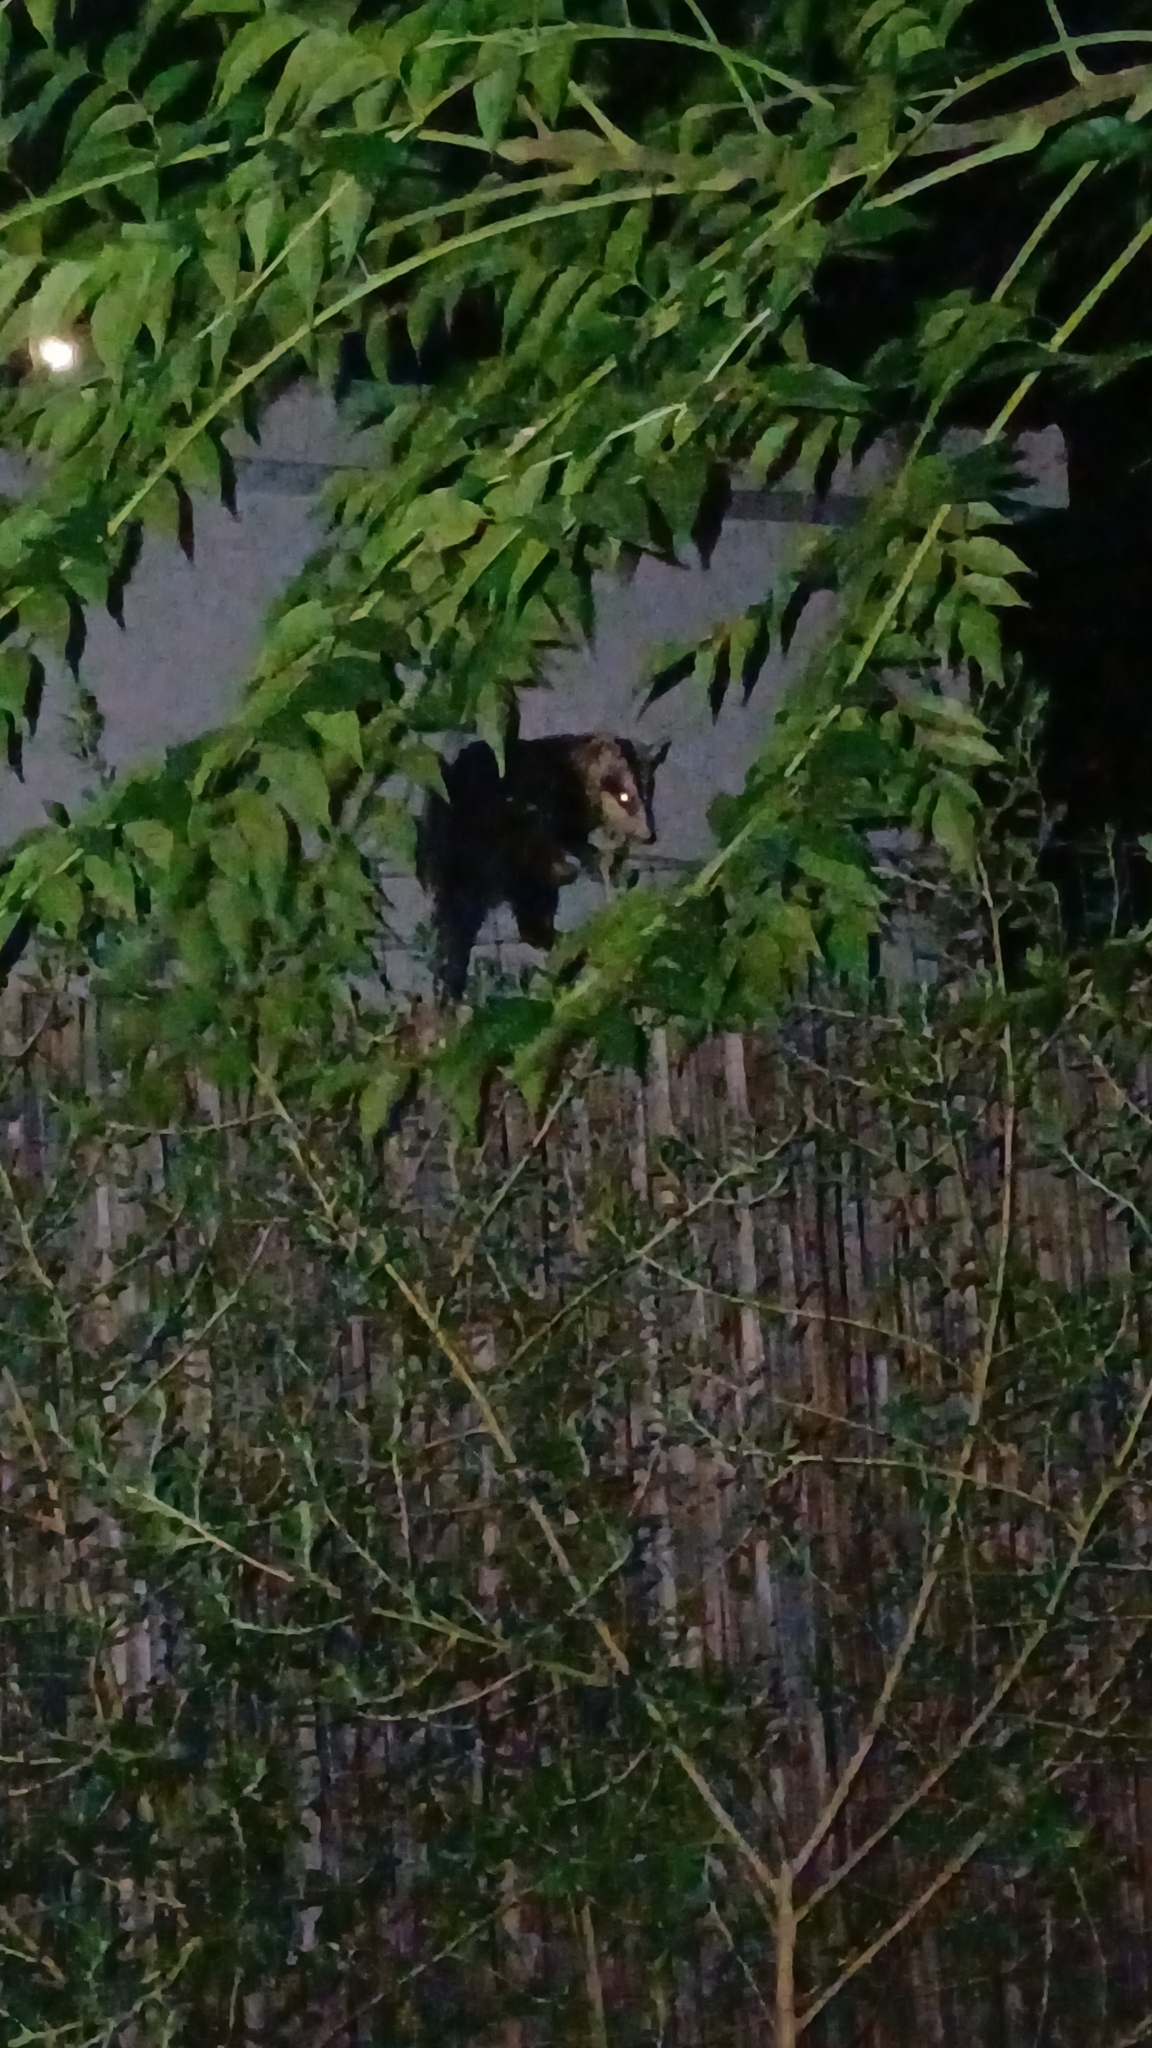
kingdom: Animalia
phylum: Chordata
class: Mammalia
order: Didelphimorphia
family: Didelphidae
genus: Didelphis
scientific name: Didelphis albiventris
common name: White-eared opossum
